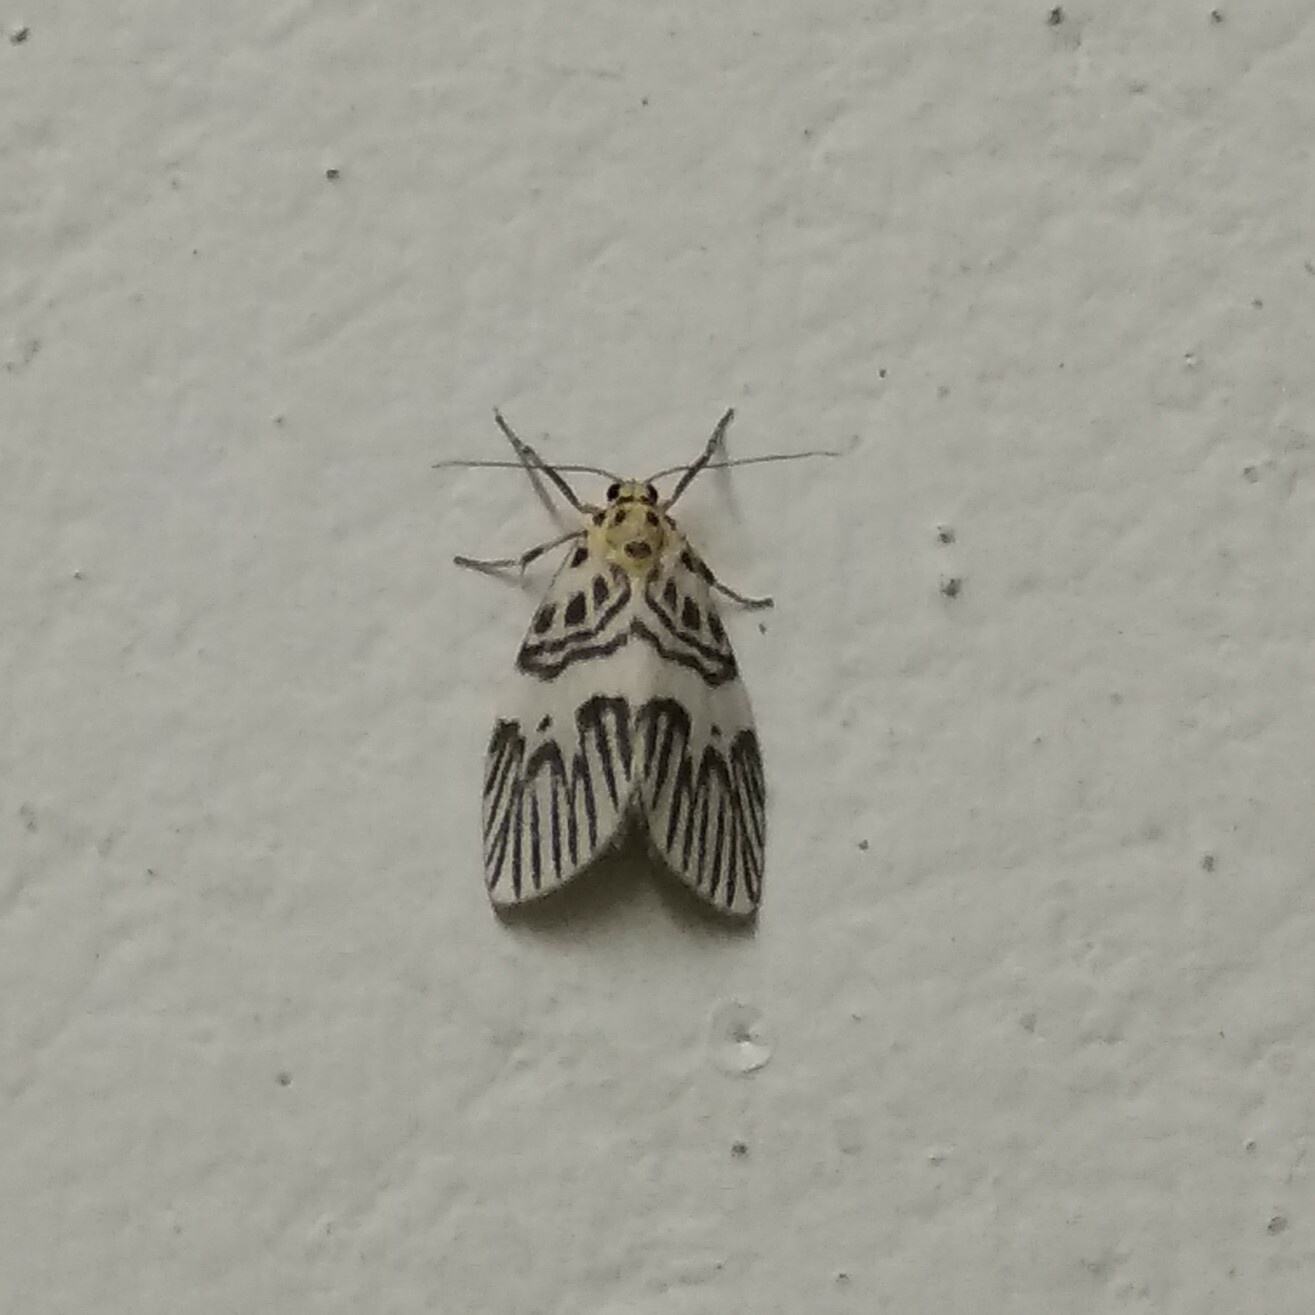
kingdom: Animalia
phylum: Arthropoda
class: Insecta
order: Lepidoptera
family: Erebidae
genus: Ammatho
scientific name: Ammatho
